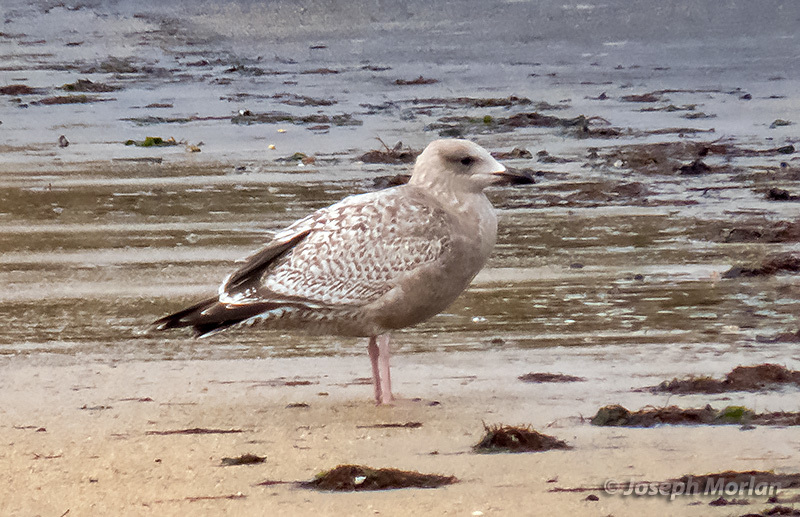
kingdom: Animalia
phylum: Chordata
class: Aves
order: Charadriiformes
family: Laridae
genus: Larus
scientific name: Larus glaucoides
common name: Iceland gull
